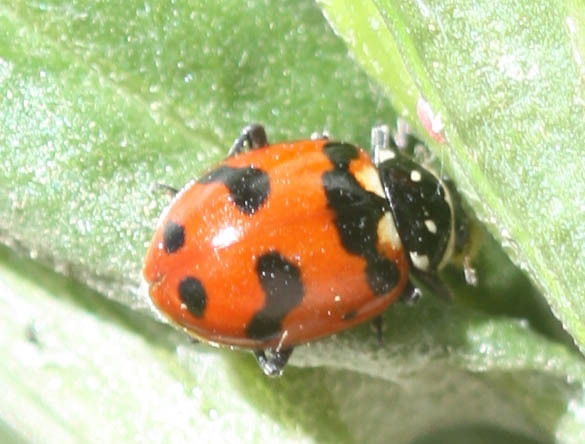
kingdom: Animalia
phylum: Arthropoda
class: Insecta
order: Coleoptera
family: Coccinellidae
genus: Hippodamia
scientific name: Hippodamia caseyi
